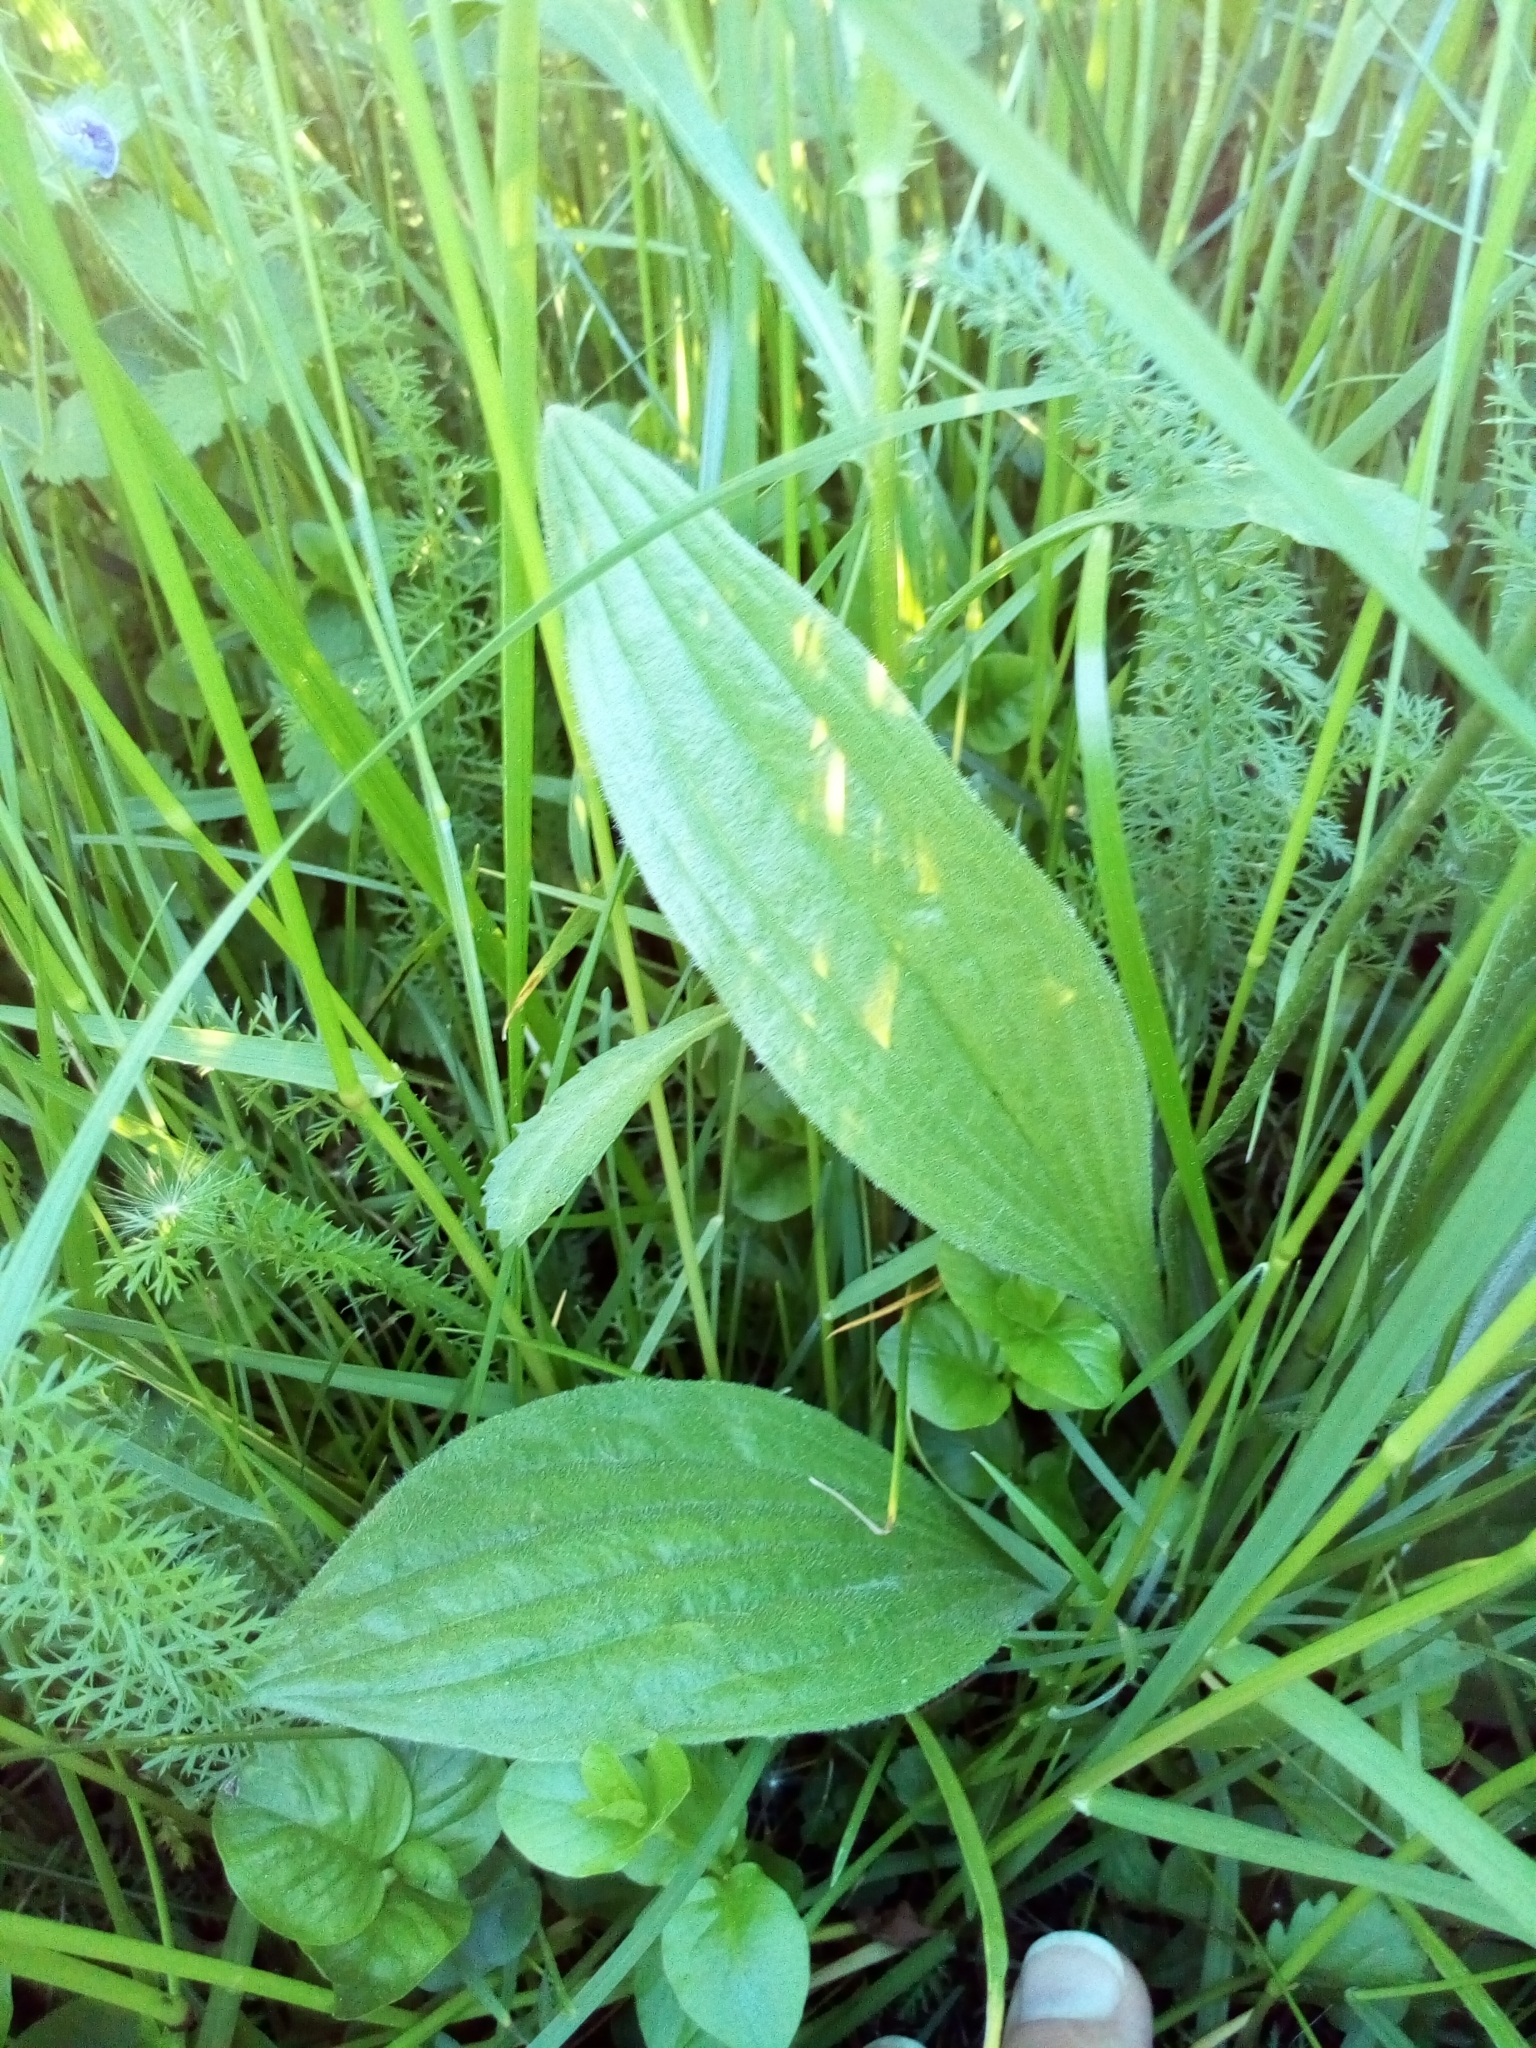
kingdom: Plantae
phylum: Tracheophyta
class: Magnoliopsida
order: Lamiales
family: Plantaginaceae
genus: Plantago
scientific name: Plantago media
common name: Hoary plantain
